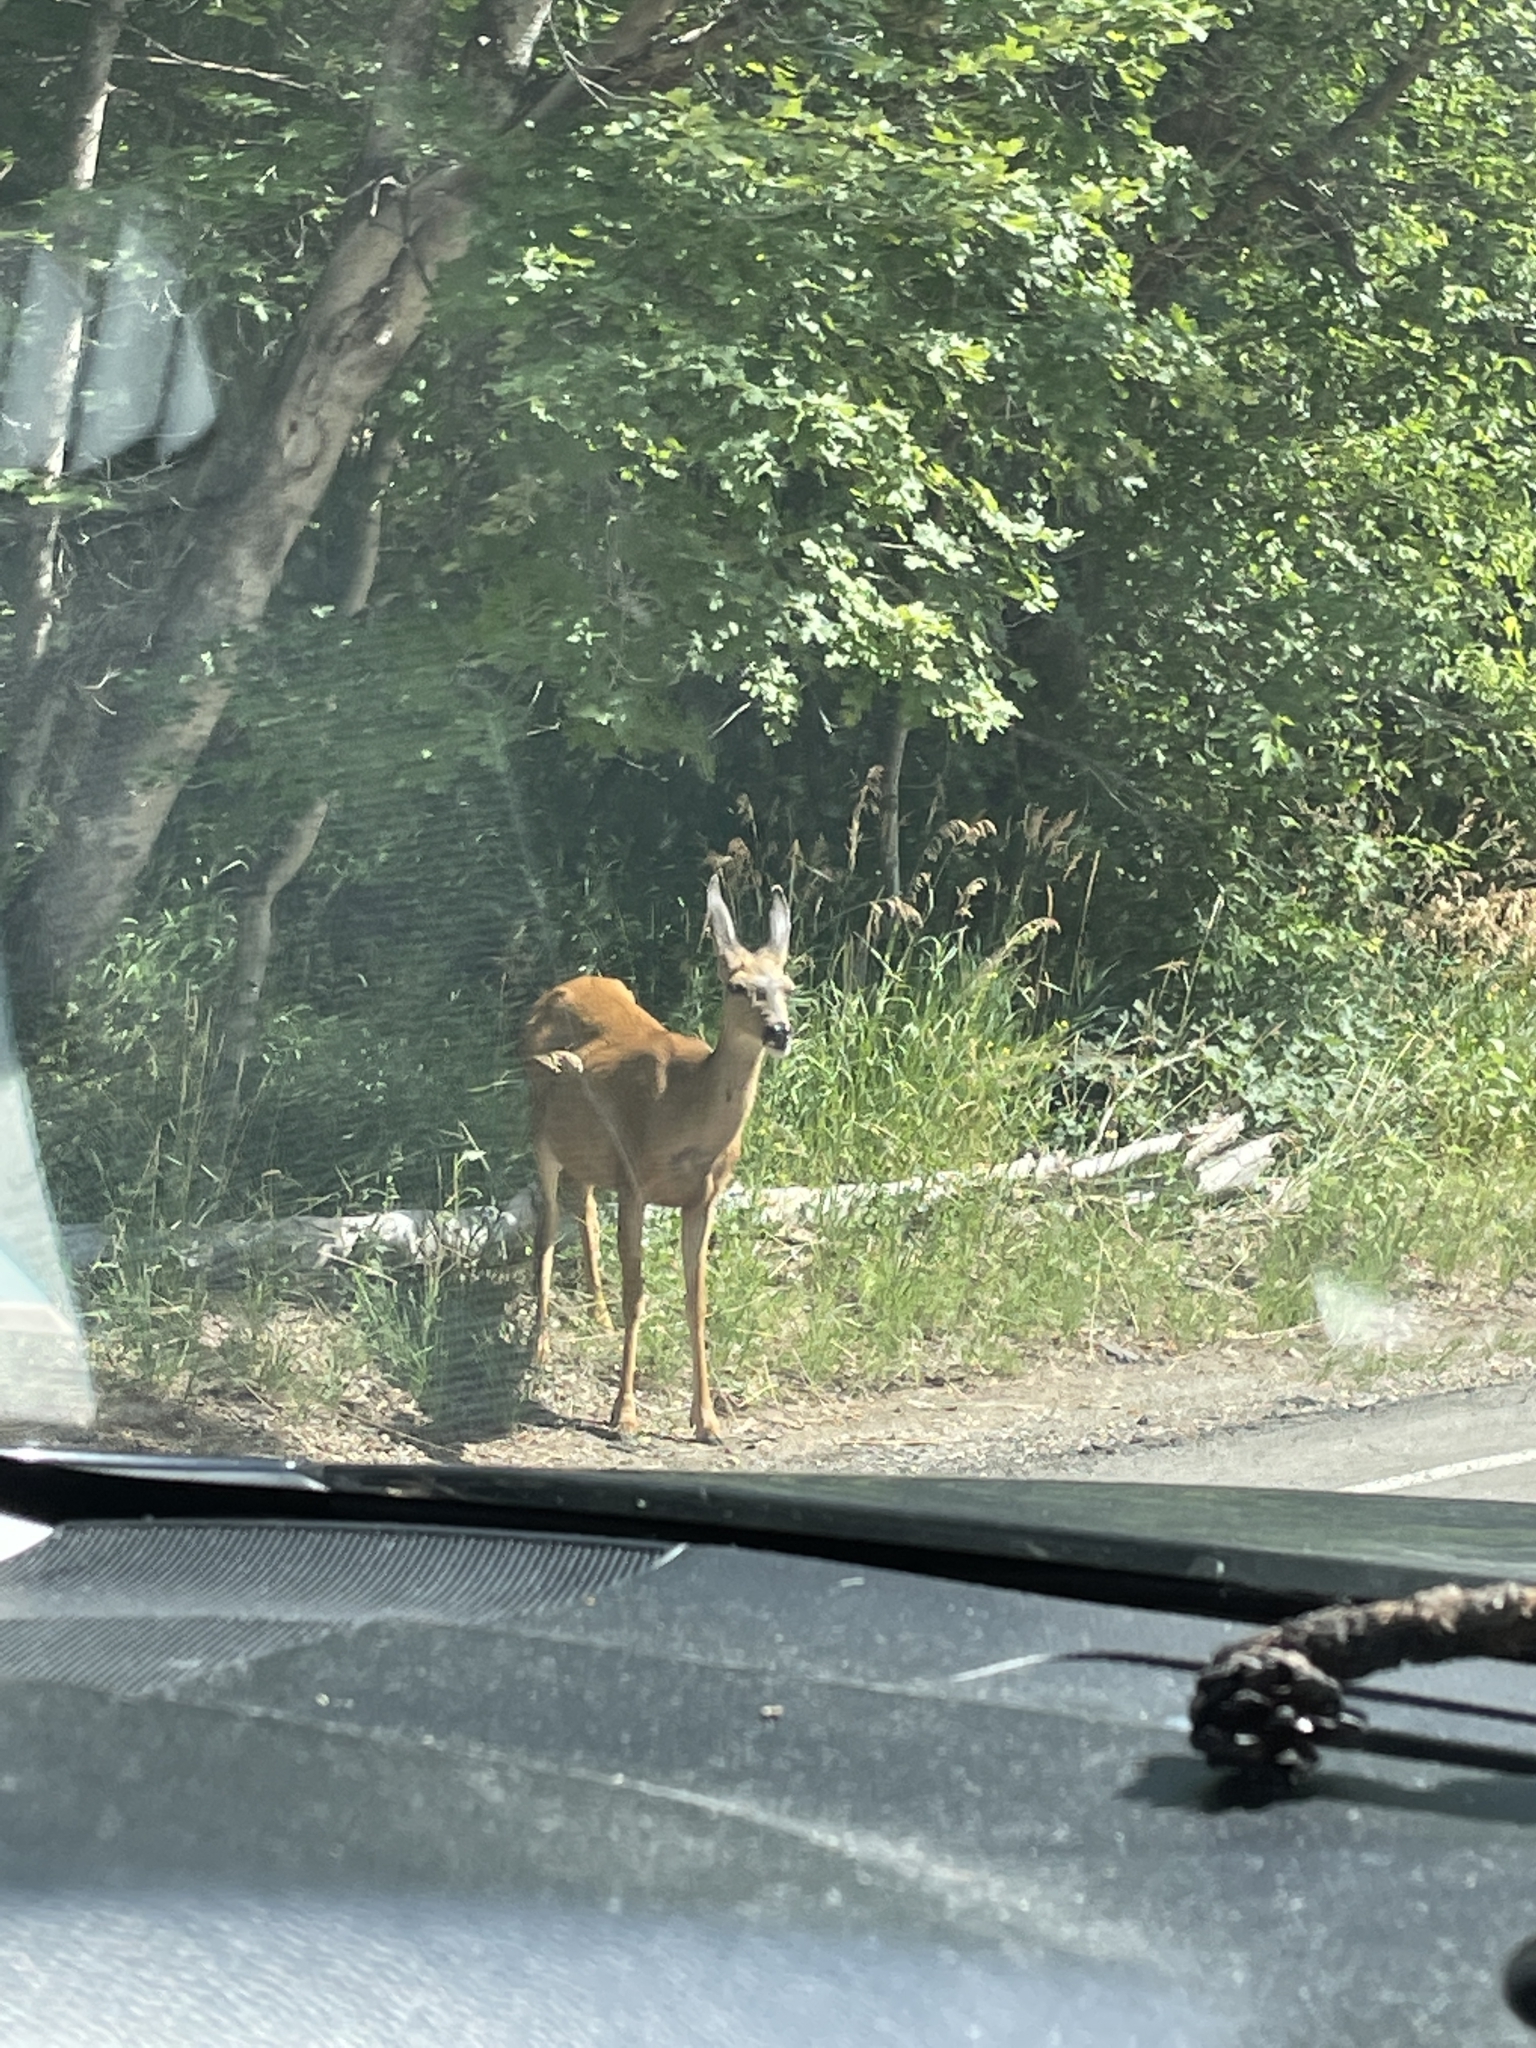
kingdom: Animalia
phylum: Chordata
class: Mammalia
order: Artiodactyla
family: Cervidae
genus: Odocoileus
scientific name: Odocoileus hemionus
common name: Mule deer
